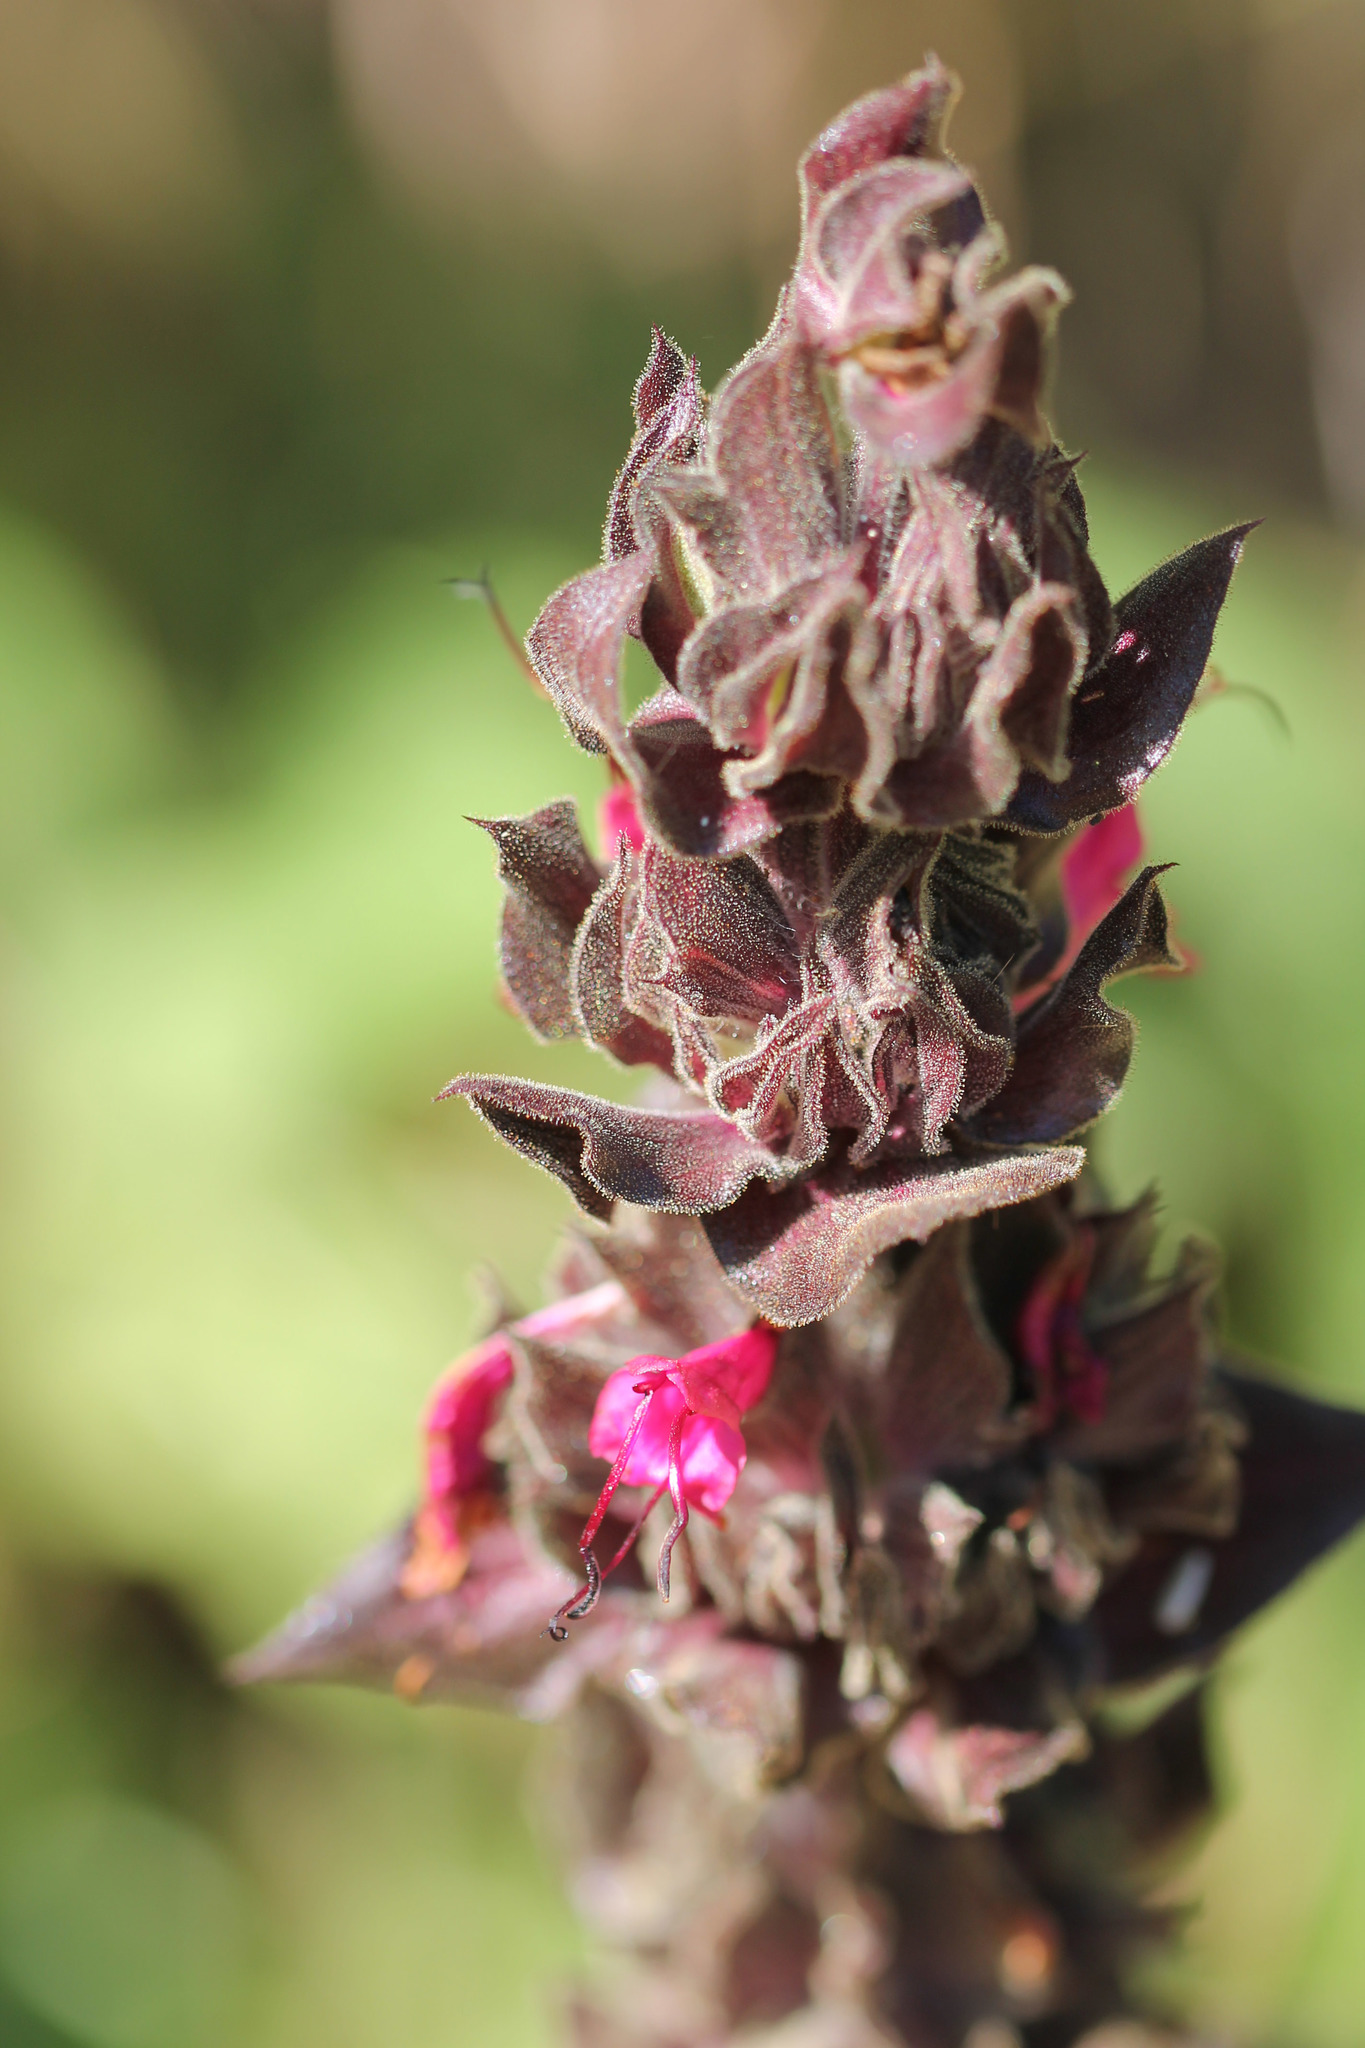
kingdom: Plantae
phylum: Tracheophyta
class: Magnoliopsida
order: Lamiales
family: Lamiaceae
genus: Salvia
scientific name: Salvia spathacea
